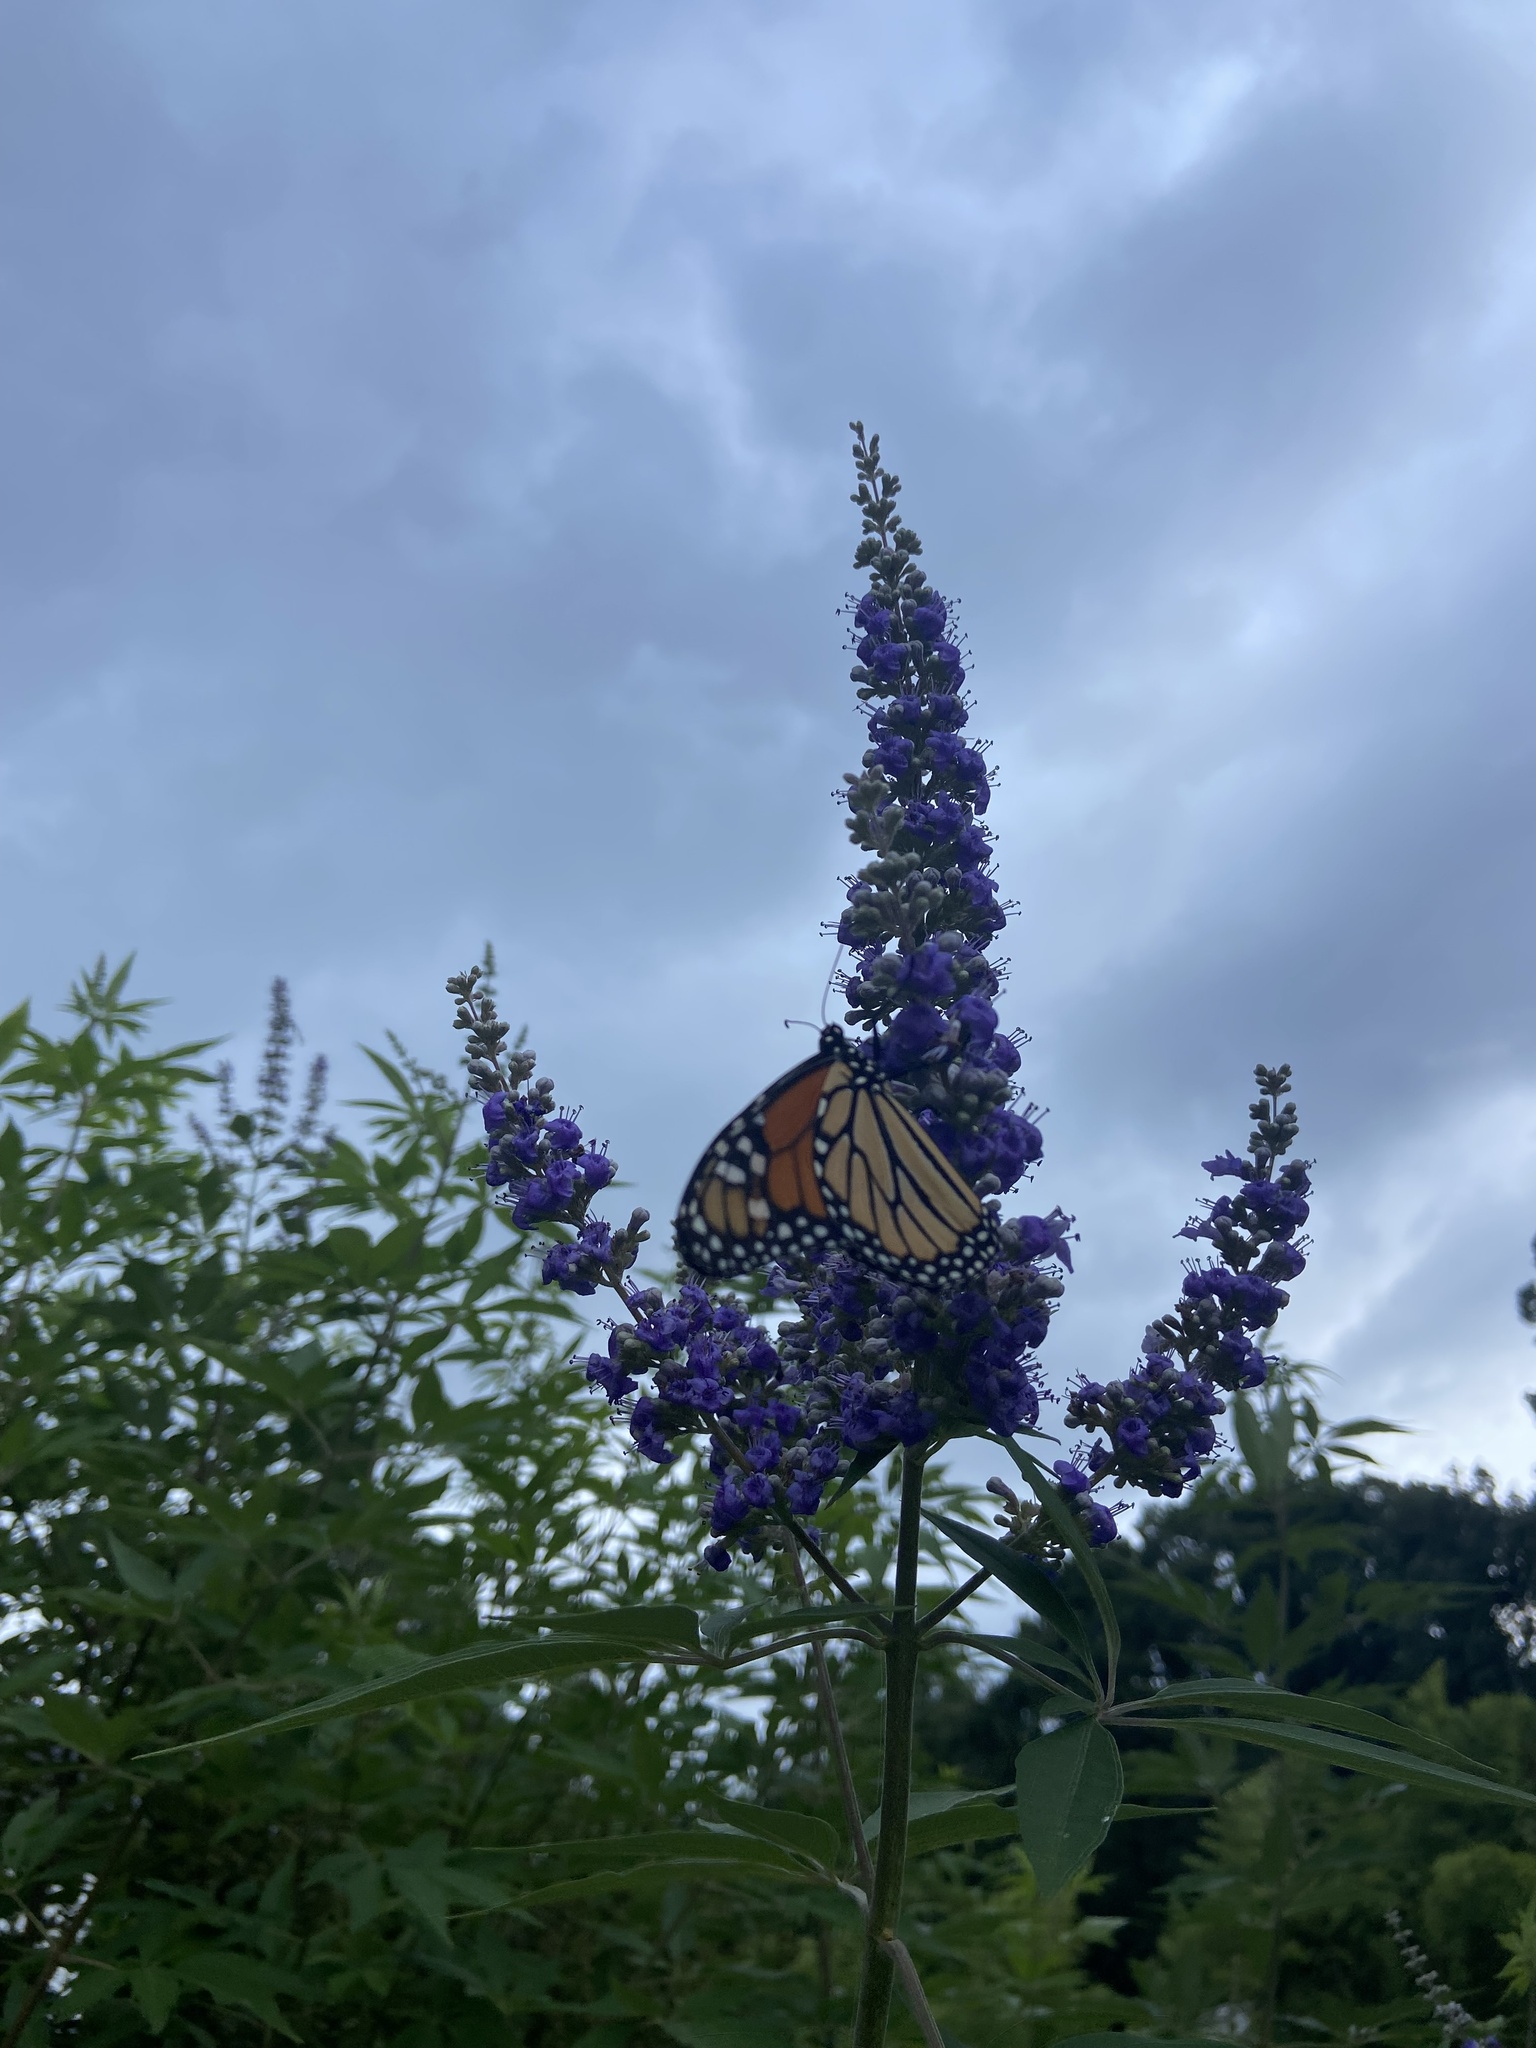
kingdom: Animalia
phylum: Arthropoda
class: Insecta
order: Lepidoptera
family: Nymphalidae
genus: Danaus
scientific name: Danaus plexippus
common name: Monarch
